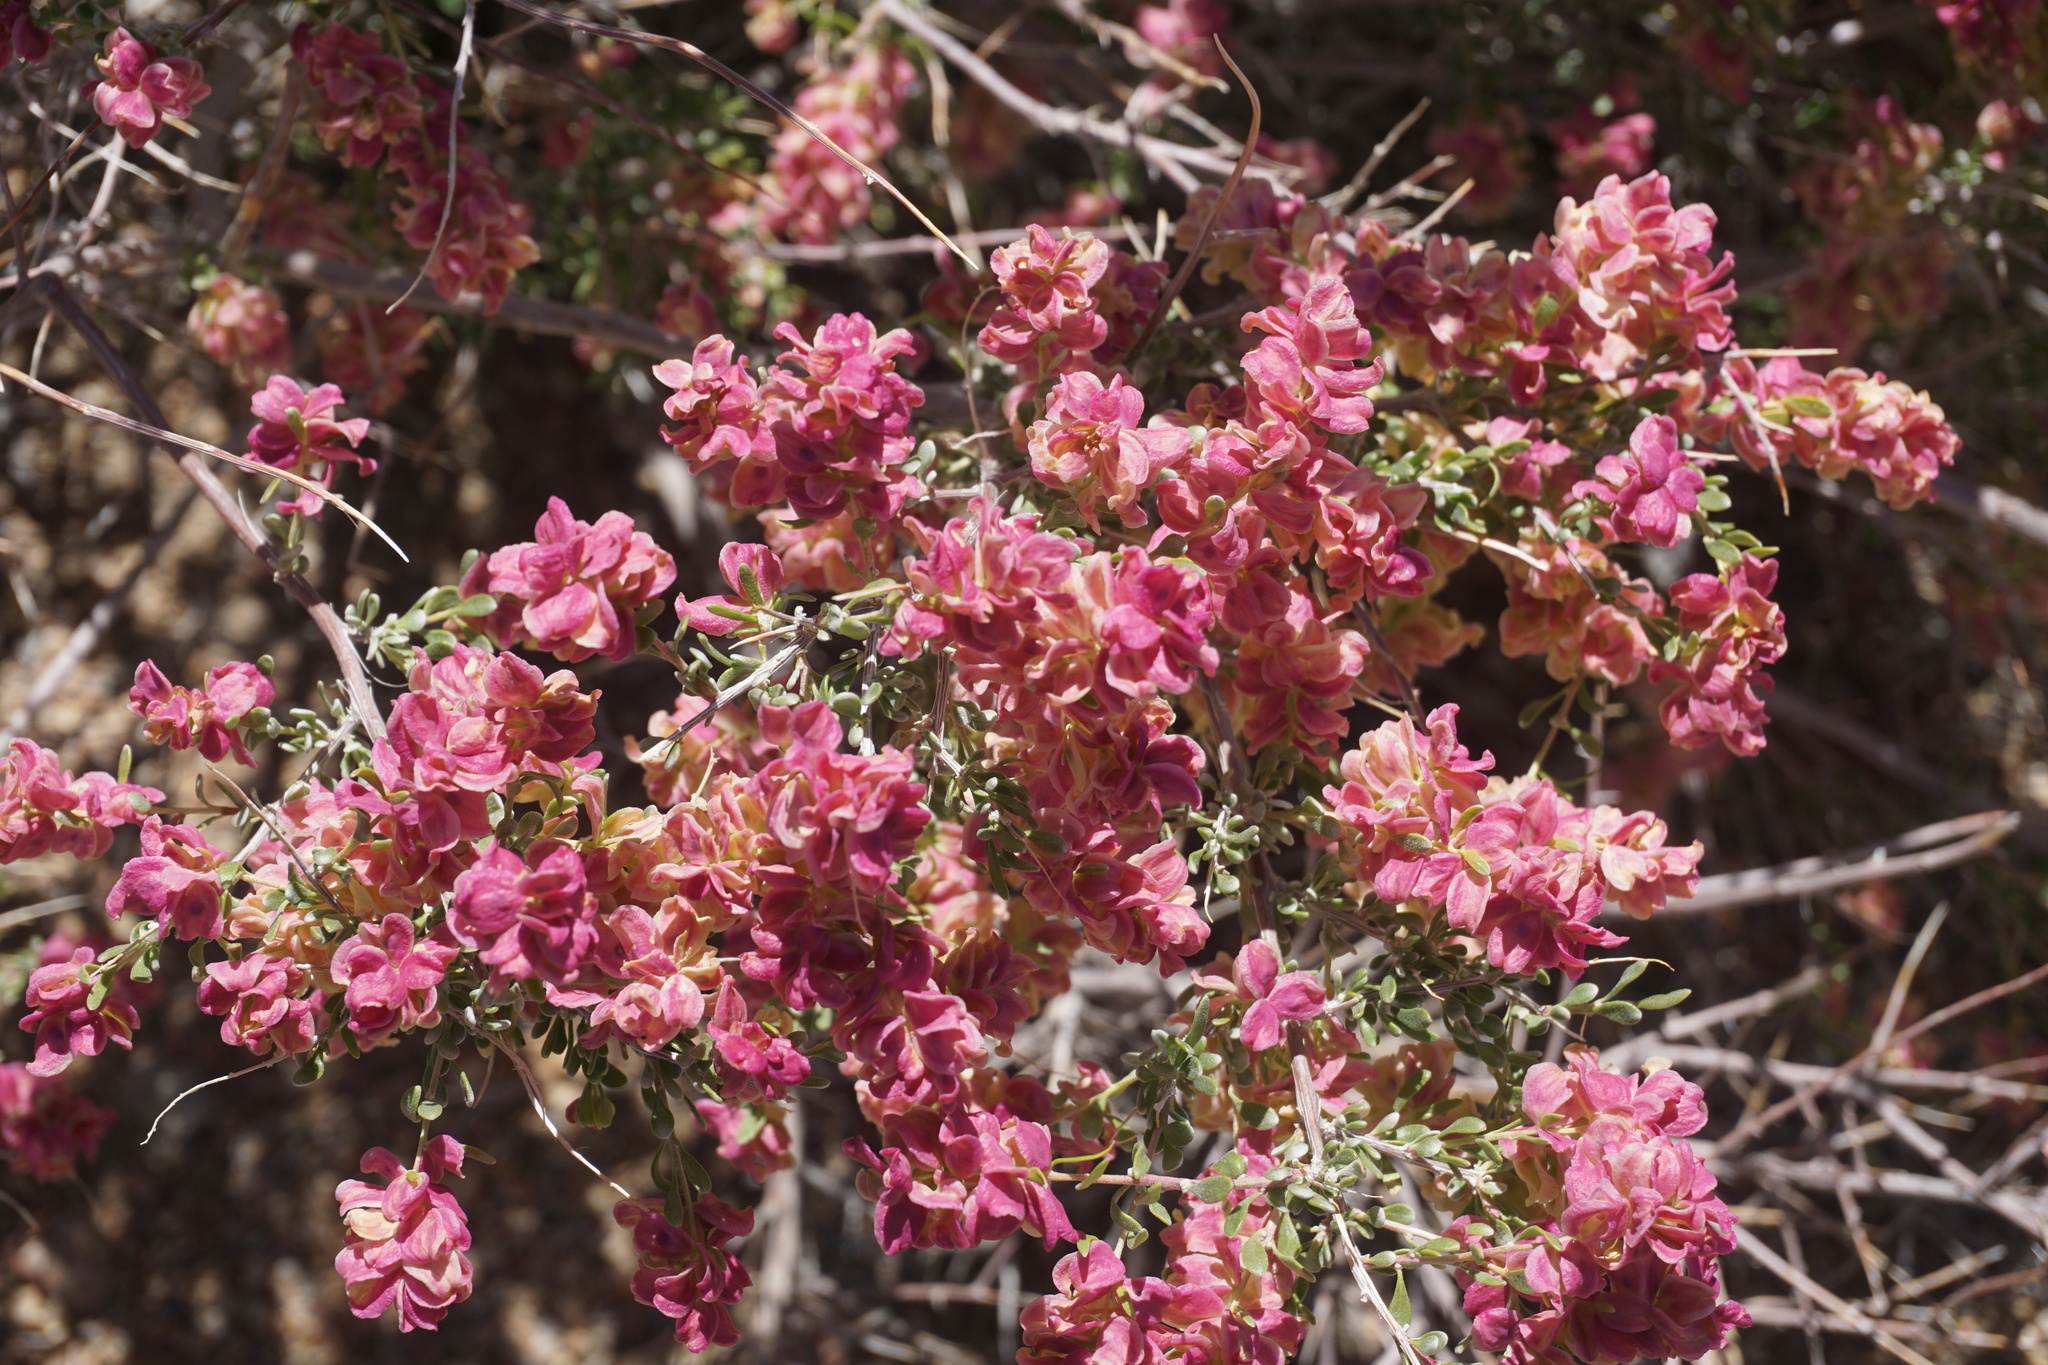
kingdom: Plantae
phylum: Tracheophyta
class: Magnoliopsida
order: Caryophyllales
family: Amaranthaceae
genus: Grayia
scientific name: Grayia spinosa
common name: Spiny hopsage
